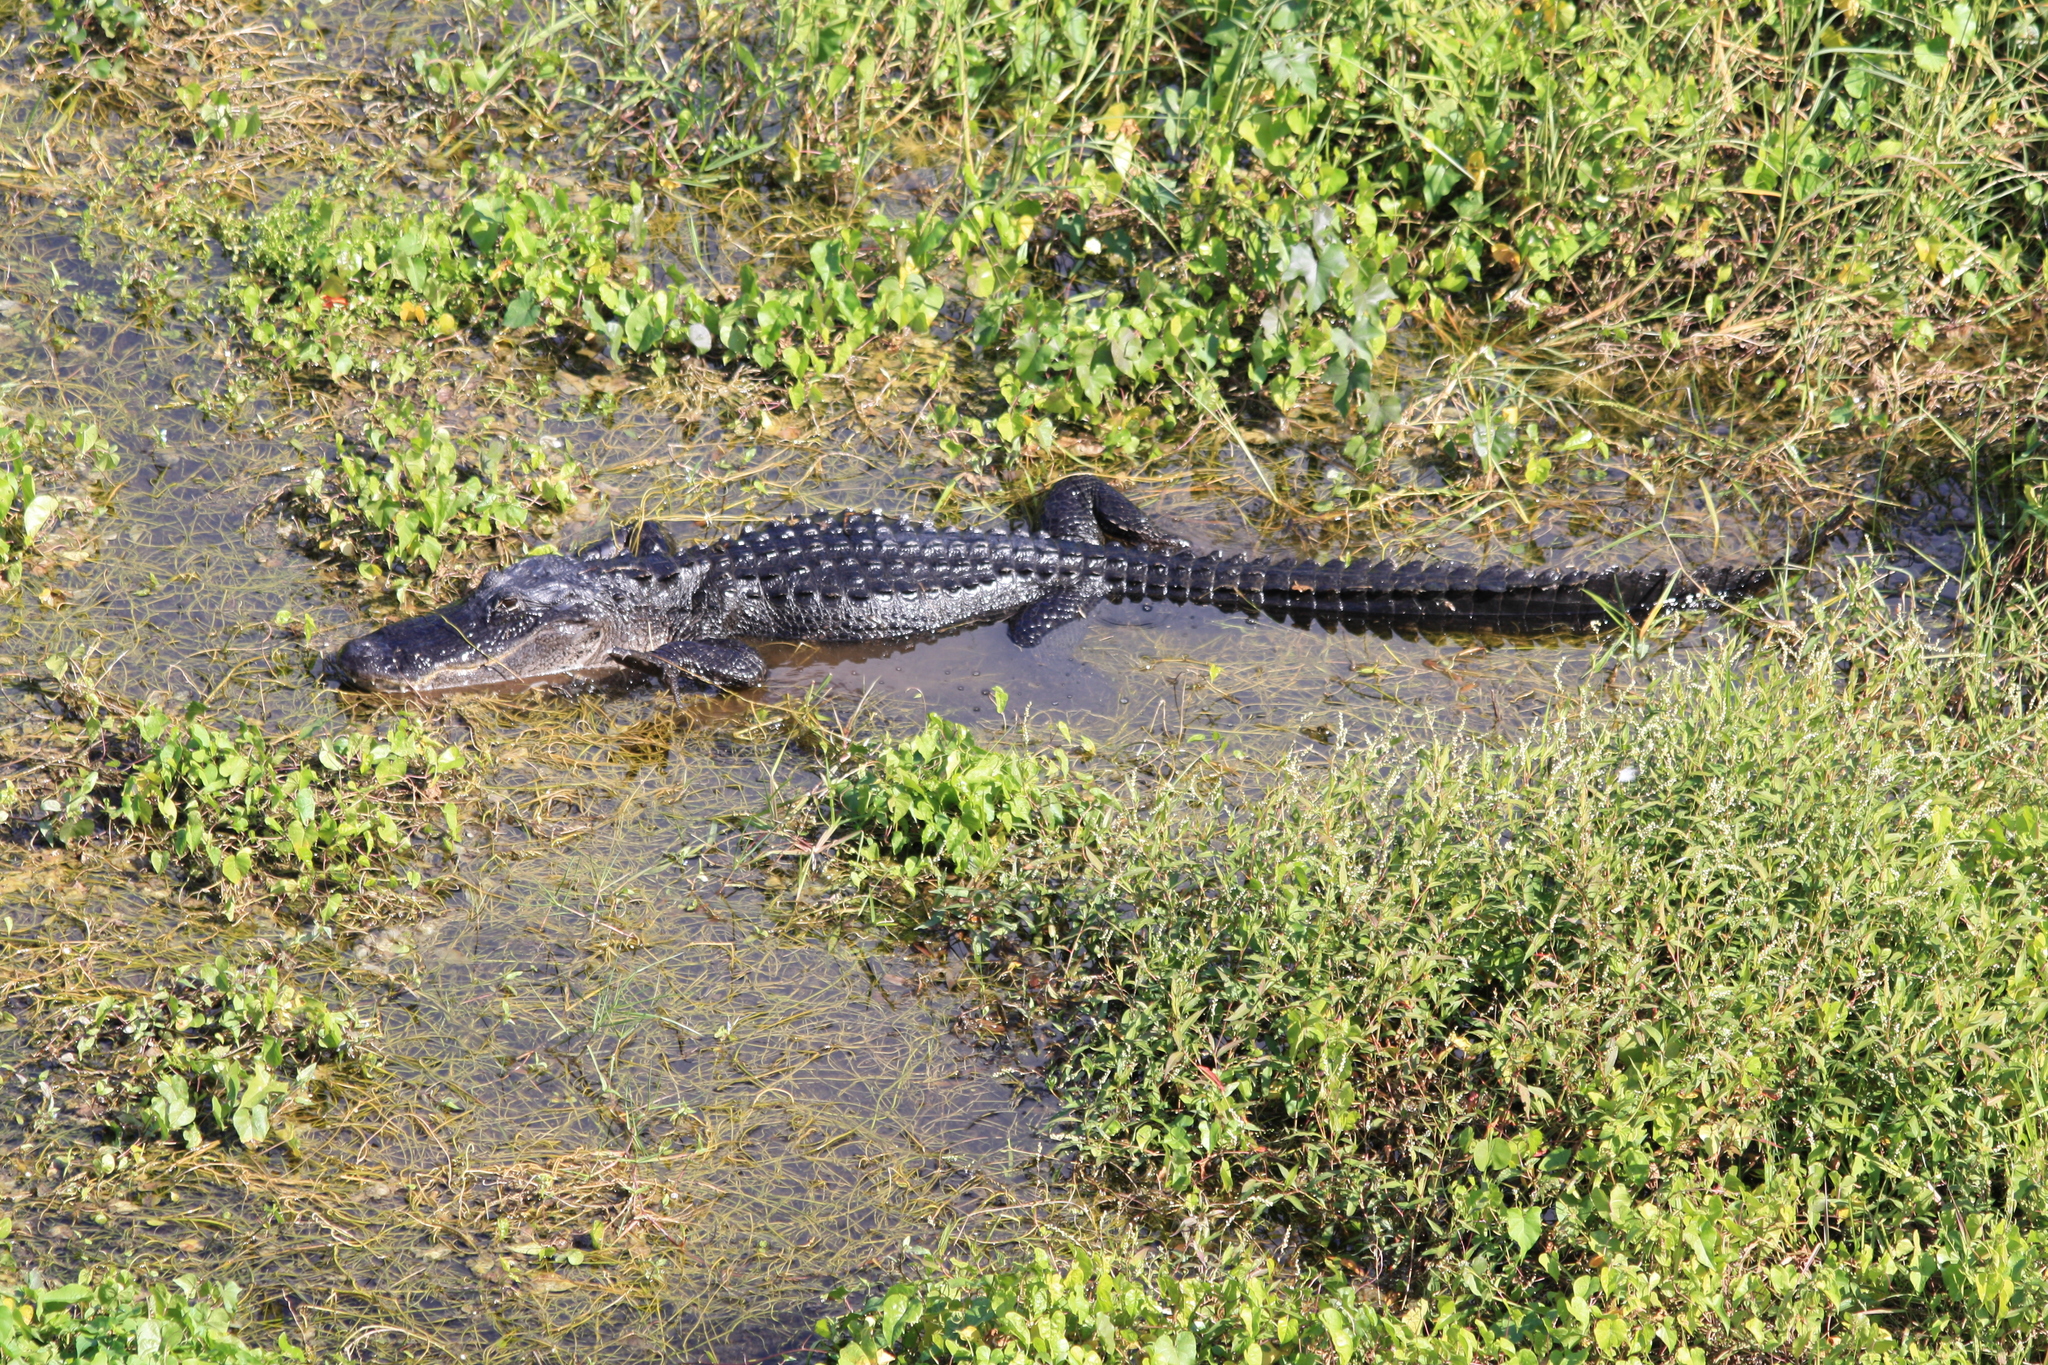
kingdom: Animalia
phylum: Chordata
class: Crocodylia
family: Alligatoridae
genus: Alligator
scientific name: Alligator mississippiensis
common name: American alligator
